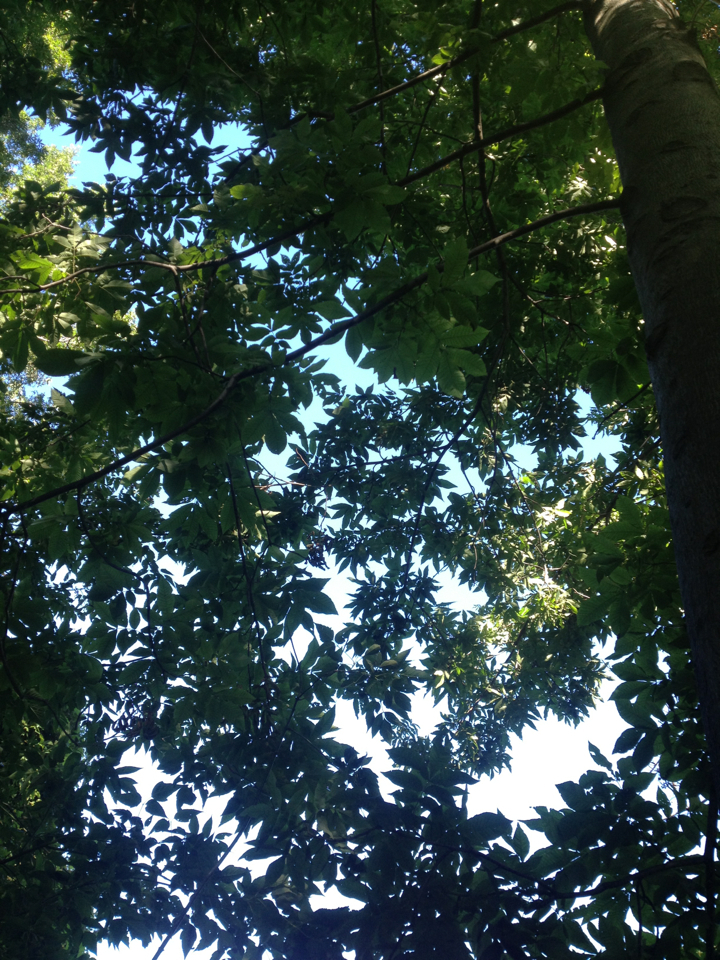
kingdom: Plantae
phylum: Tracheophyta
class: Magnoliopsida
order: Fagales
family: Juglandaceae
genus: Carya
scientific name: Carya cordiformis
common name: Bitternut hickory
